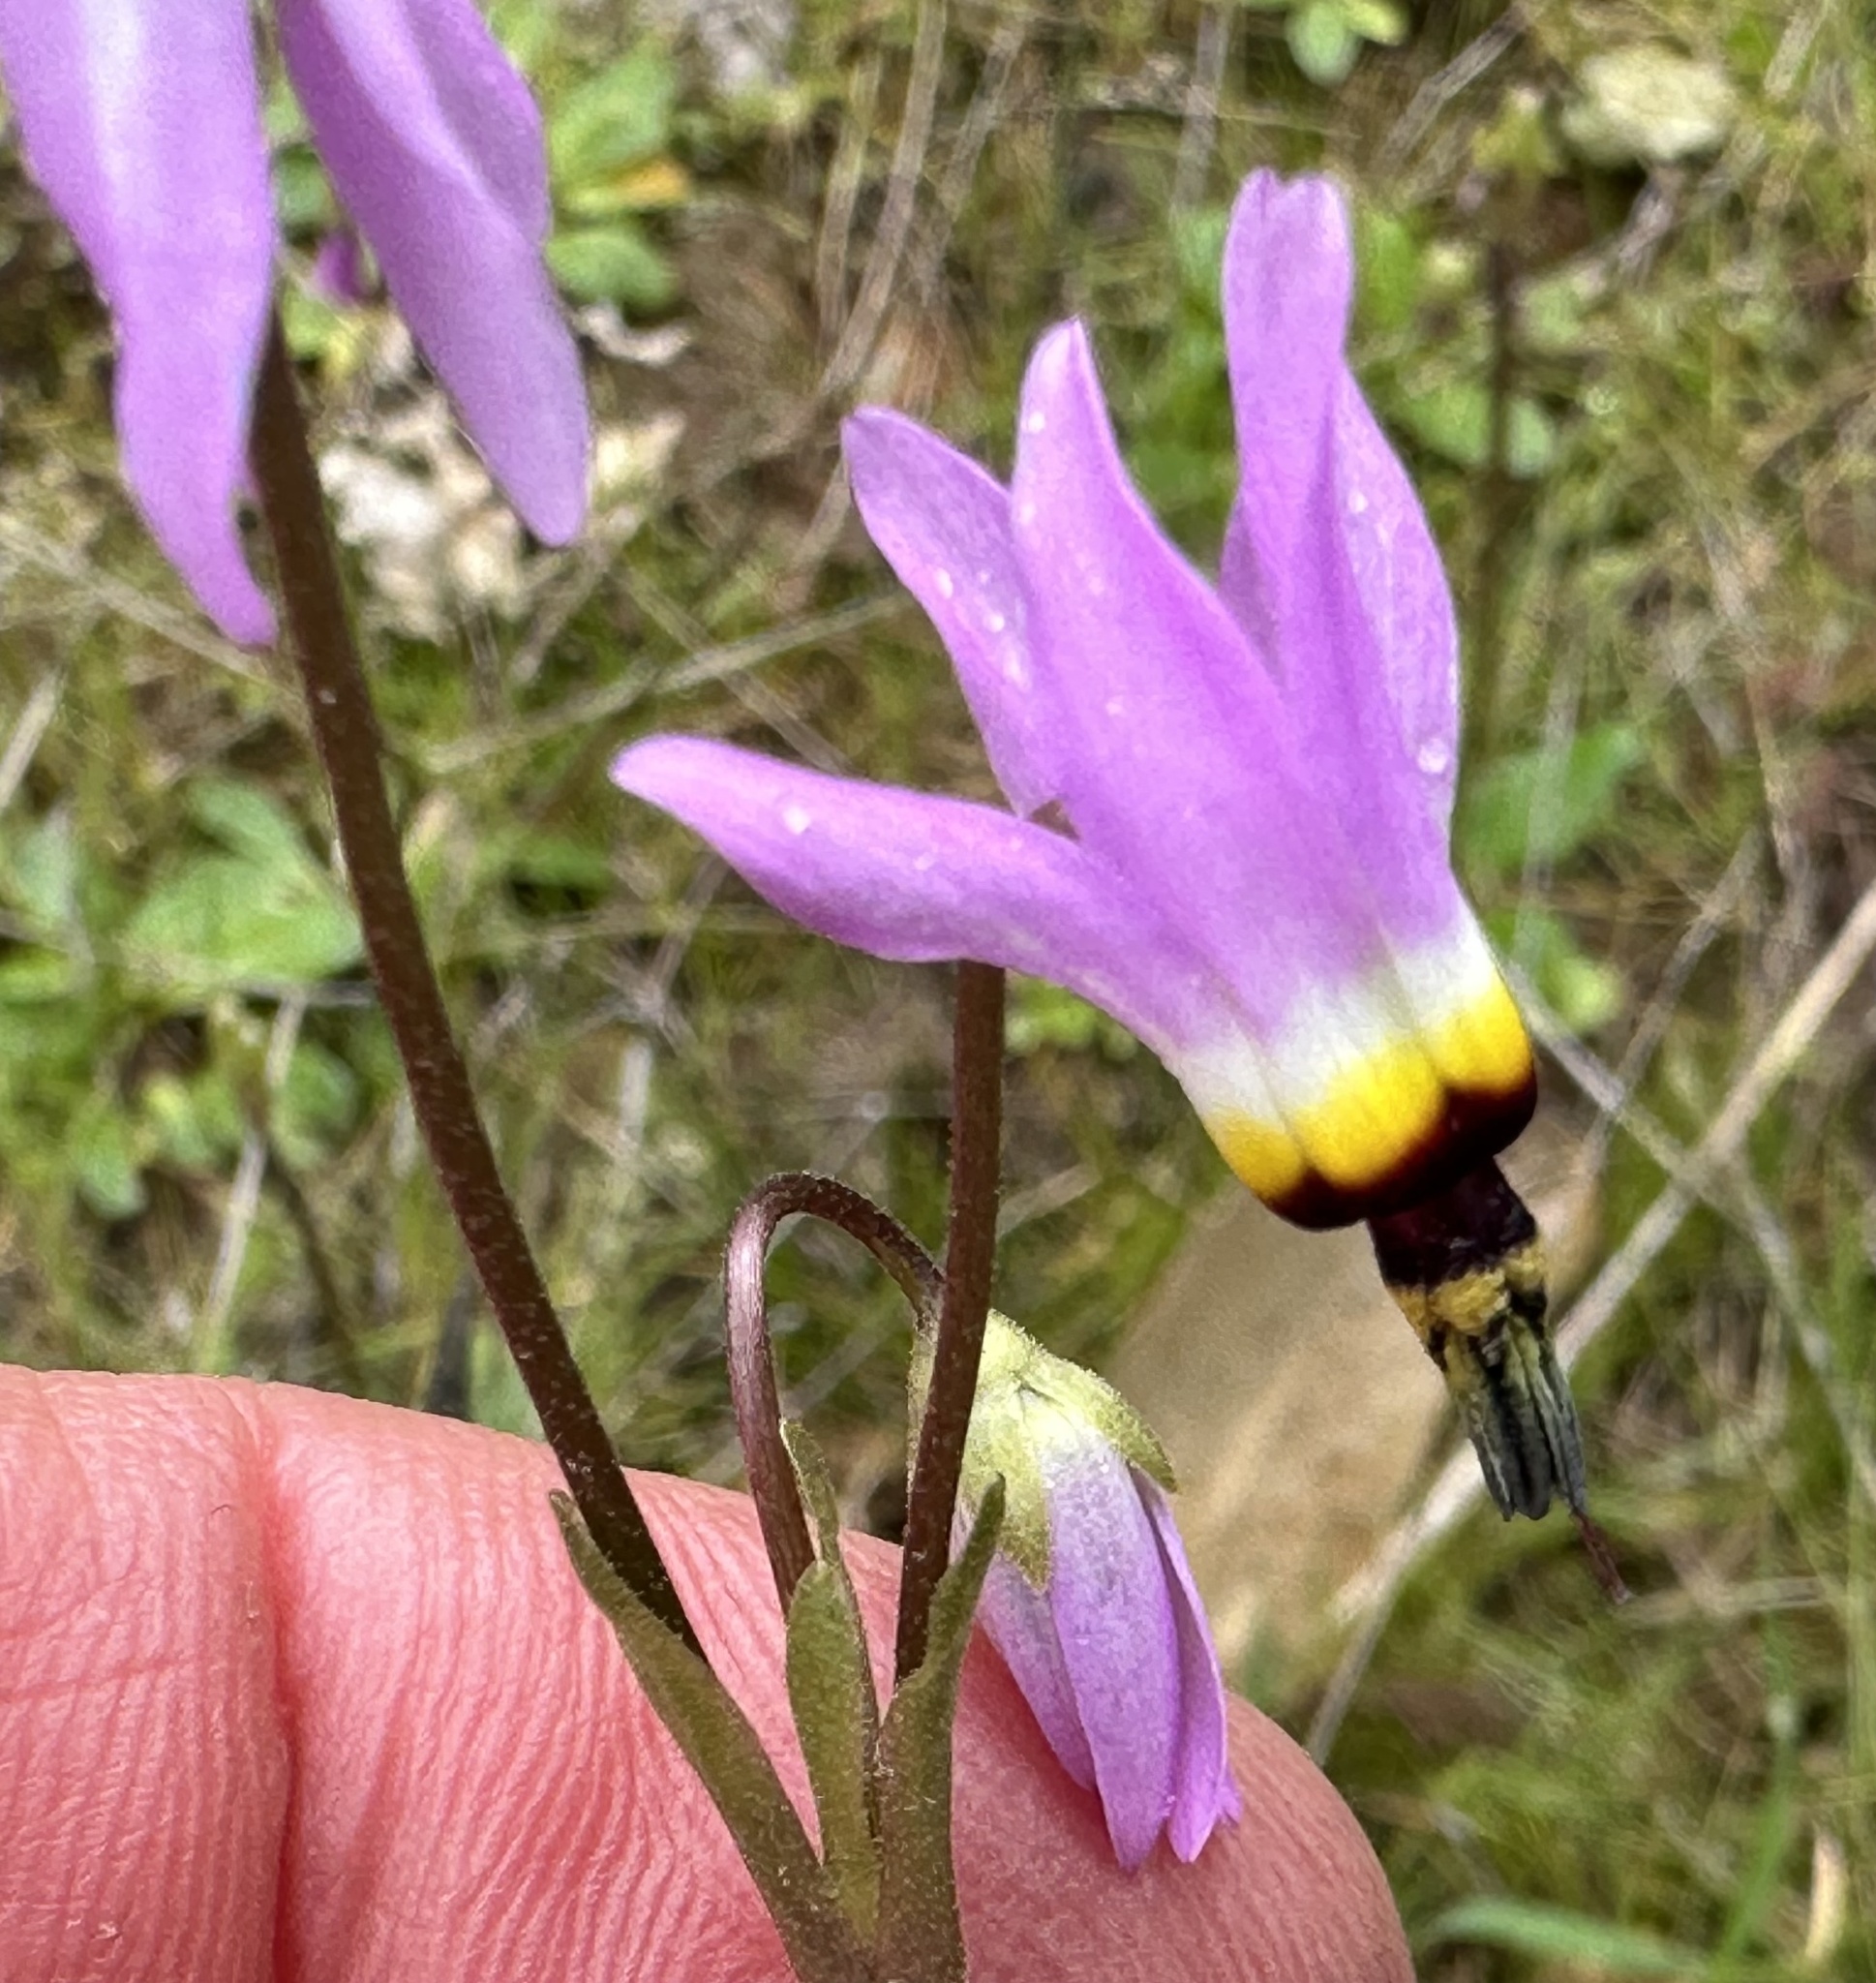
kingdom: Plantae
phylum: Tracheophyta
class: Magnoliopsida
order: Ericales
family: Primulaceae
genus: Dodecatheon
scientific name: Dodecatheon clevelandii
